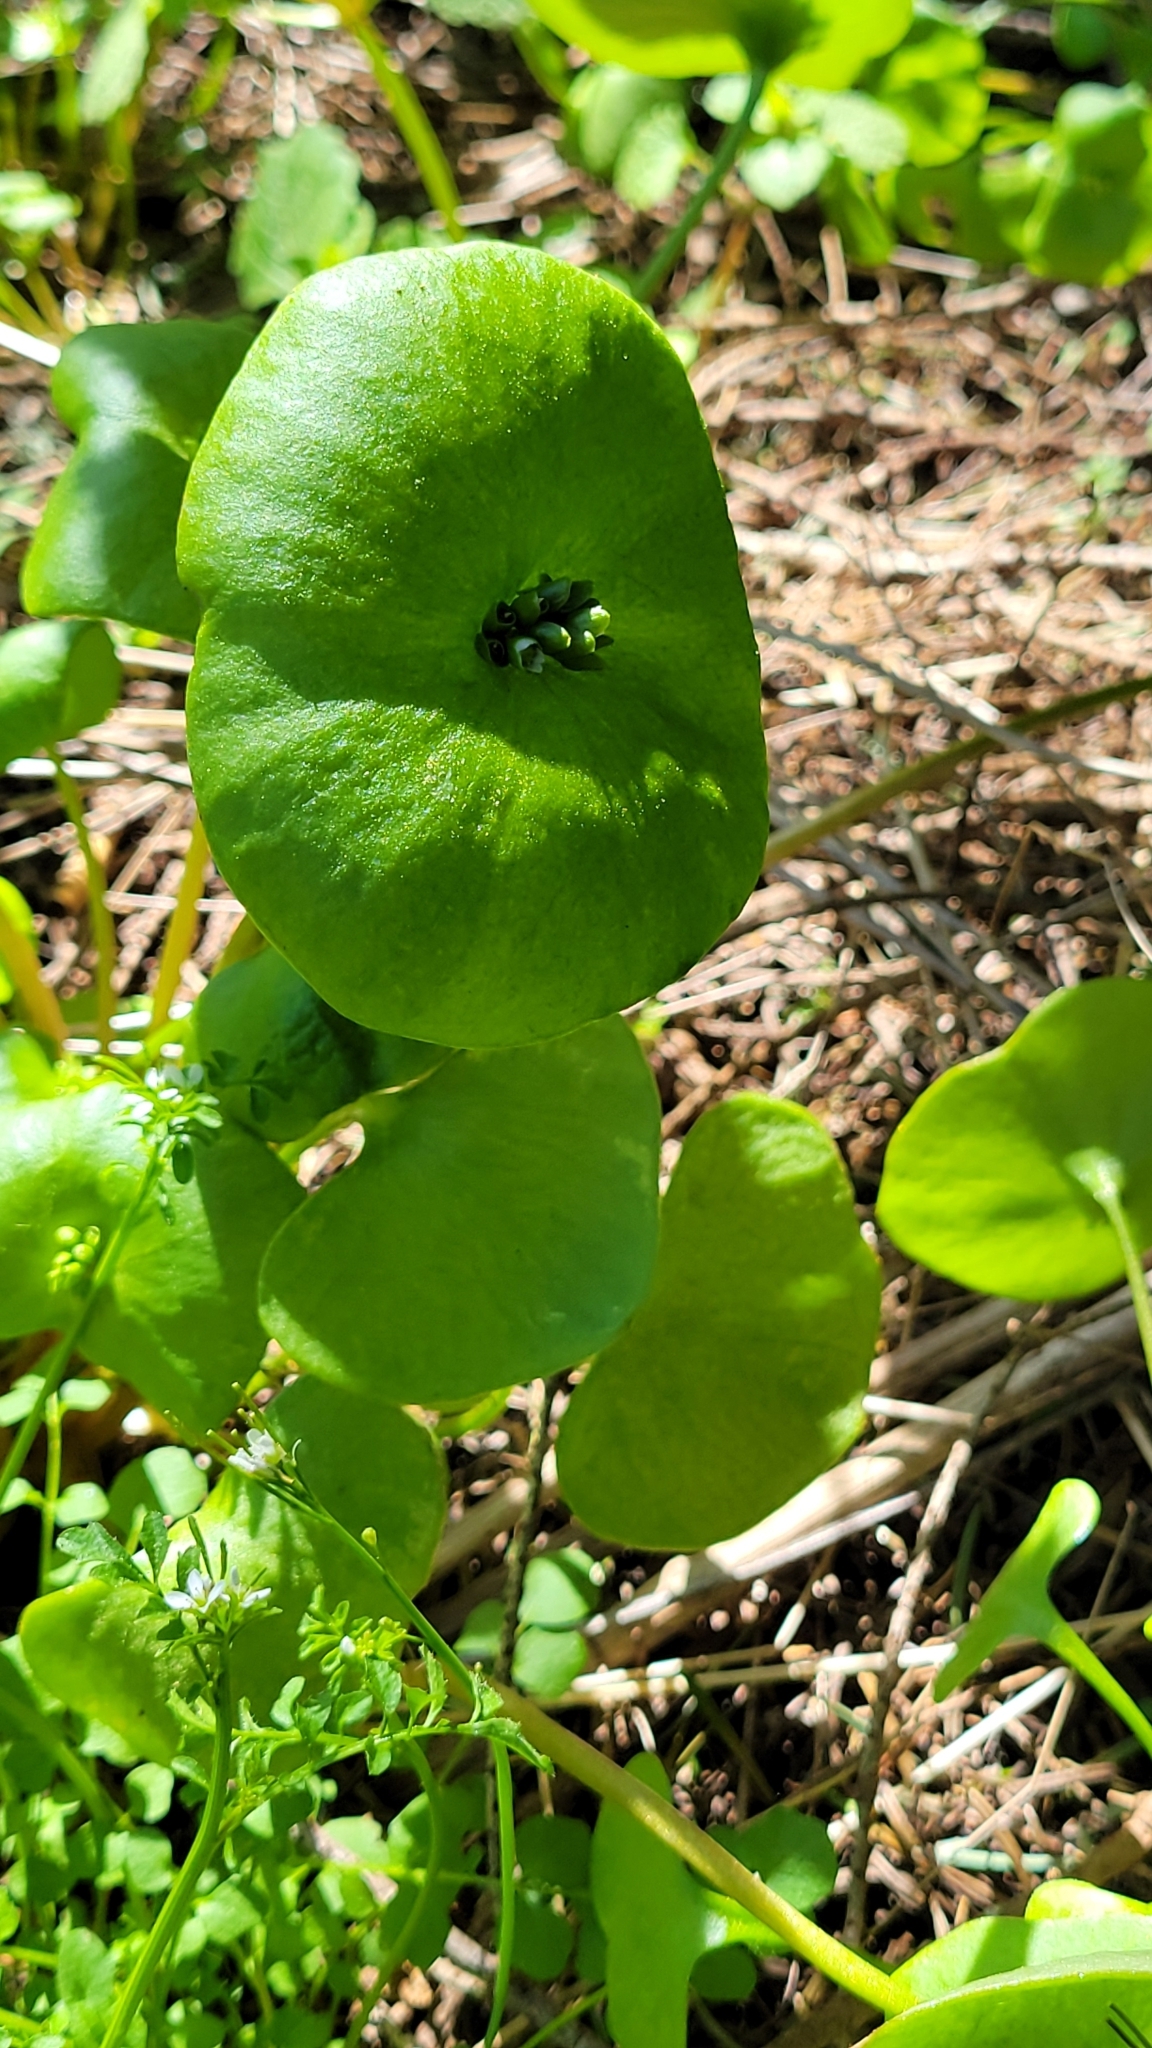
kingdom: Plantae
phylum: Tracheophyta
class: Magnoliopsida
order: Caryophyllales
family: Montiaceae
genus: Claytonia
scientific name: Claytonia perfoliata
